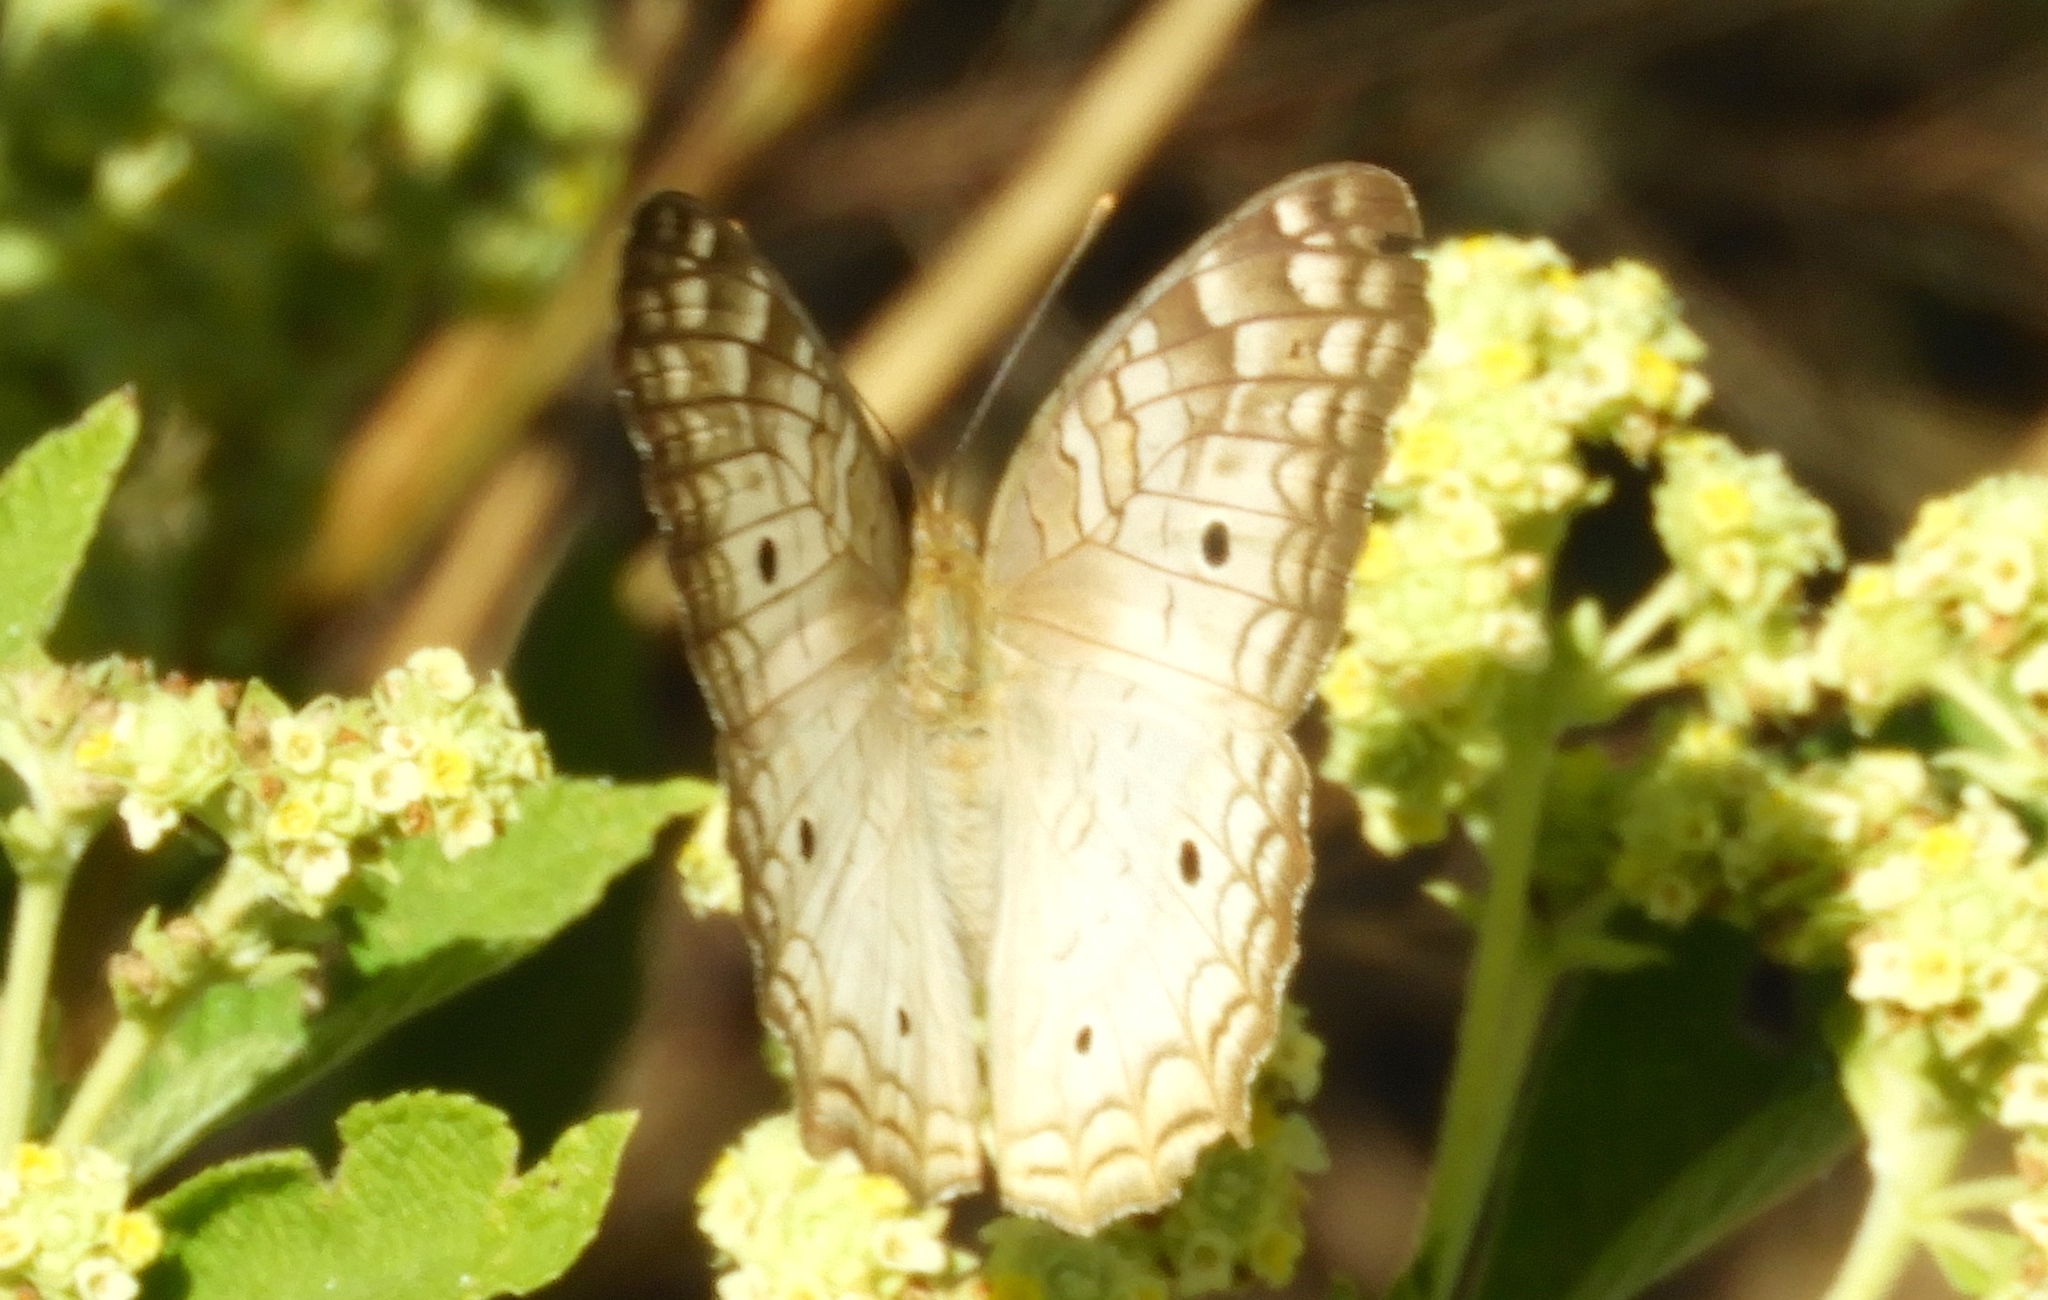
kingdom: Animalia
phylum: Arthropoda
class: Insecta
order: Lepidoptera
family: Nymphalidae
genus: Anartia
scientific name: Anartia jatrophae
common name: White peacock
